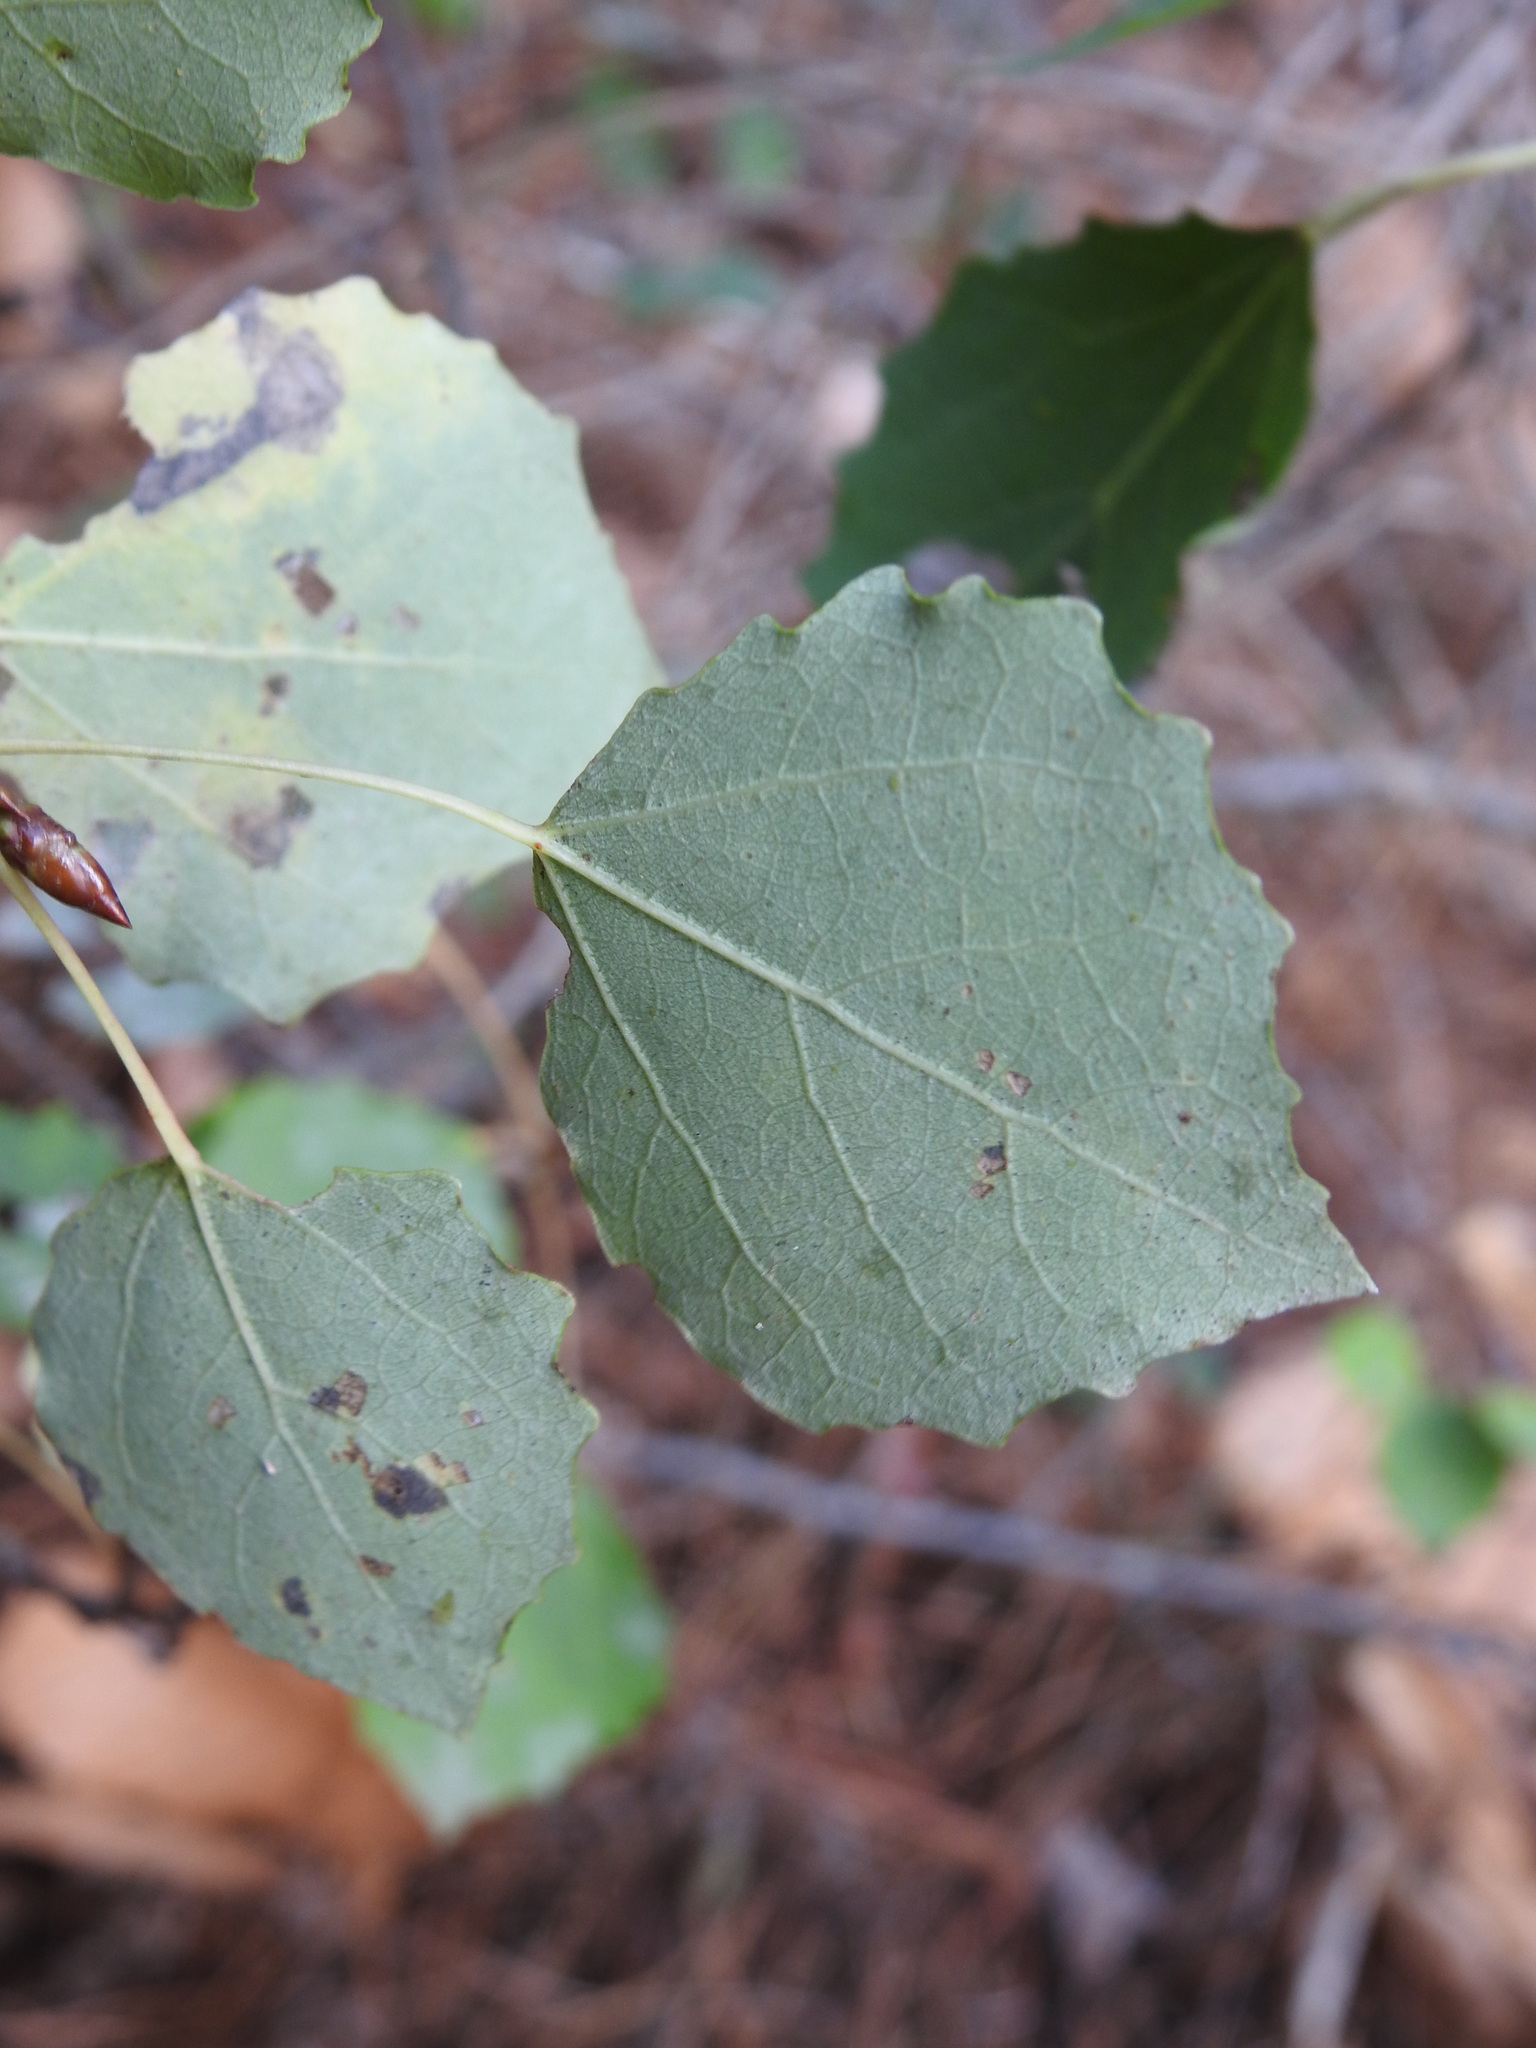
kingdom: Plantae
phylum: Tracheophyta
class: Magnoliopsida
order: Malpighiales
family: Salicaceae
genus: Populus
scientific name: Populus tremula
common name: European aspen
